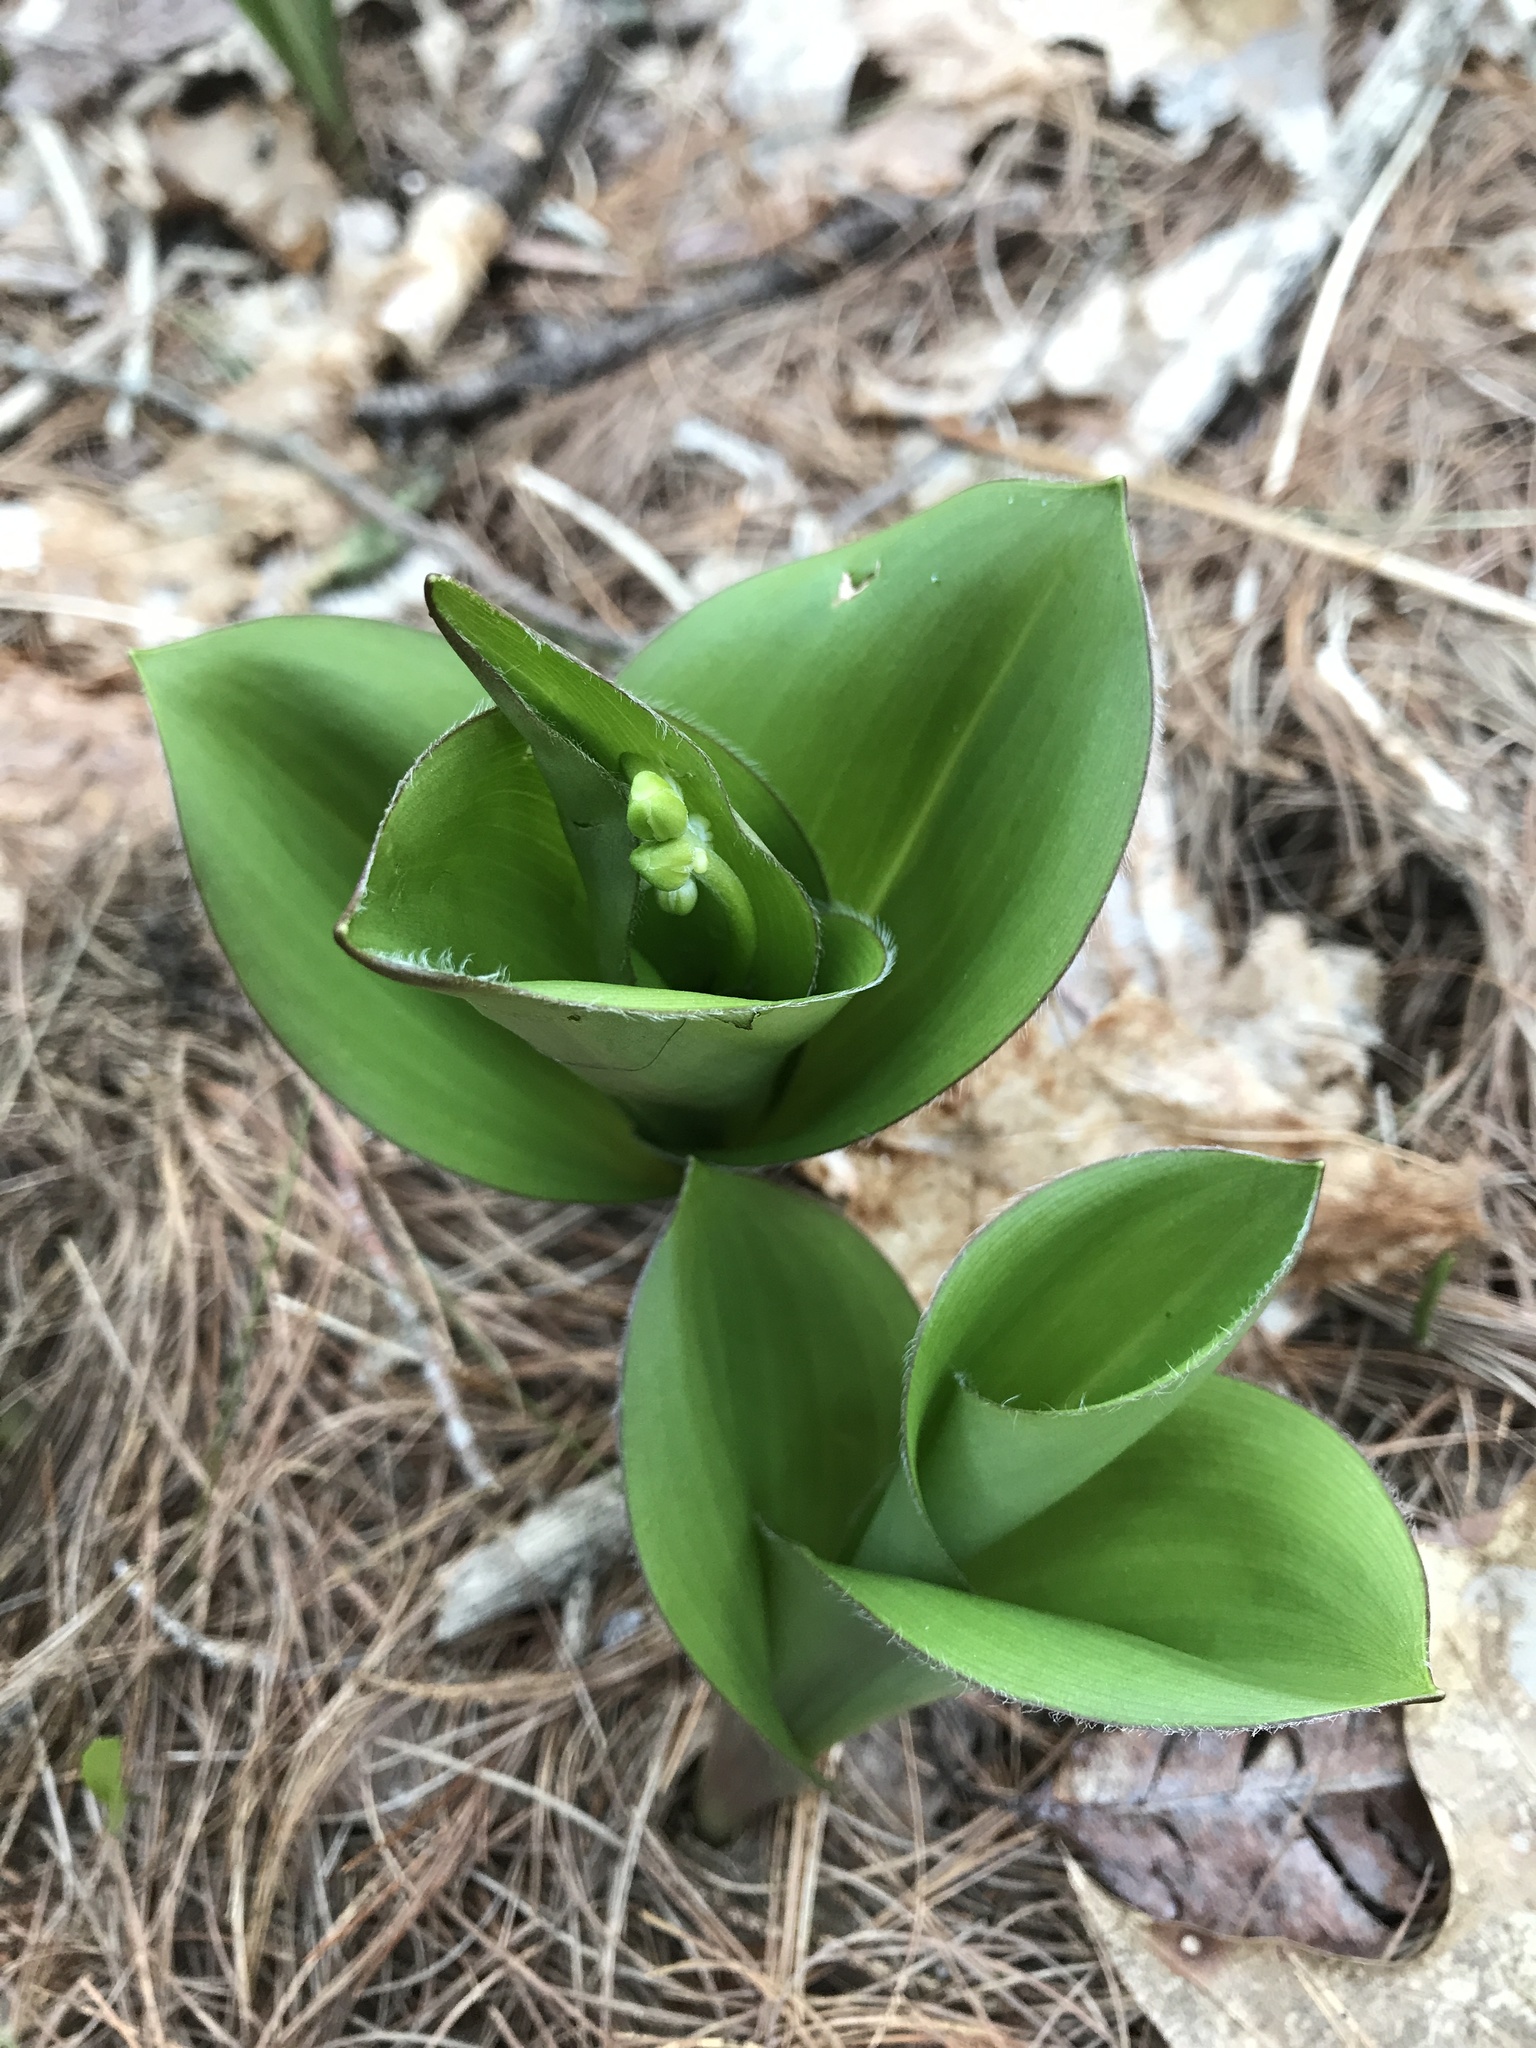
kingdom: Plantae
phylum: Tracheophyta
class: Liliopsida
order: Liliales
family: Liliaceae
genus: Clintonia
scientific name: Clintonia borealis
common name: Yellow clintonia
